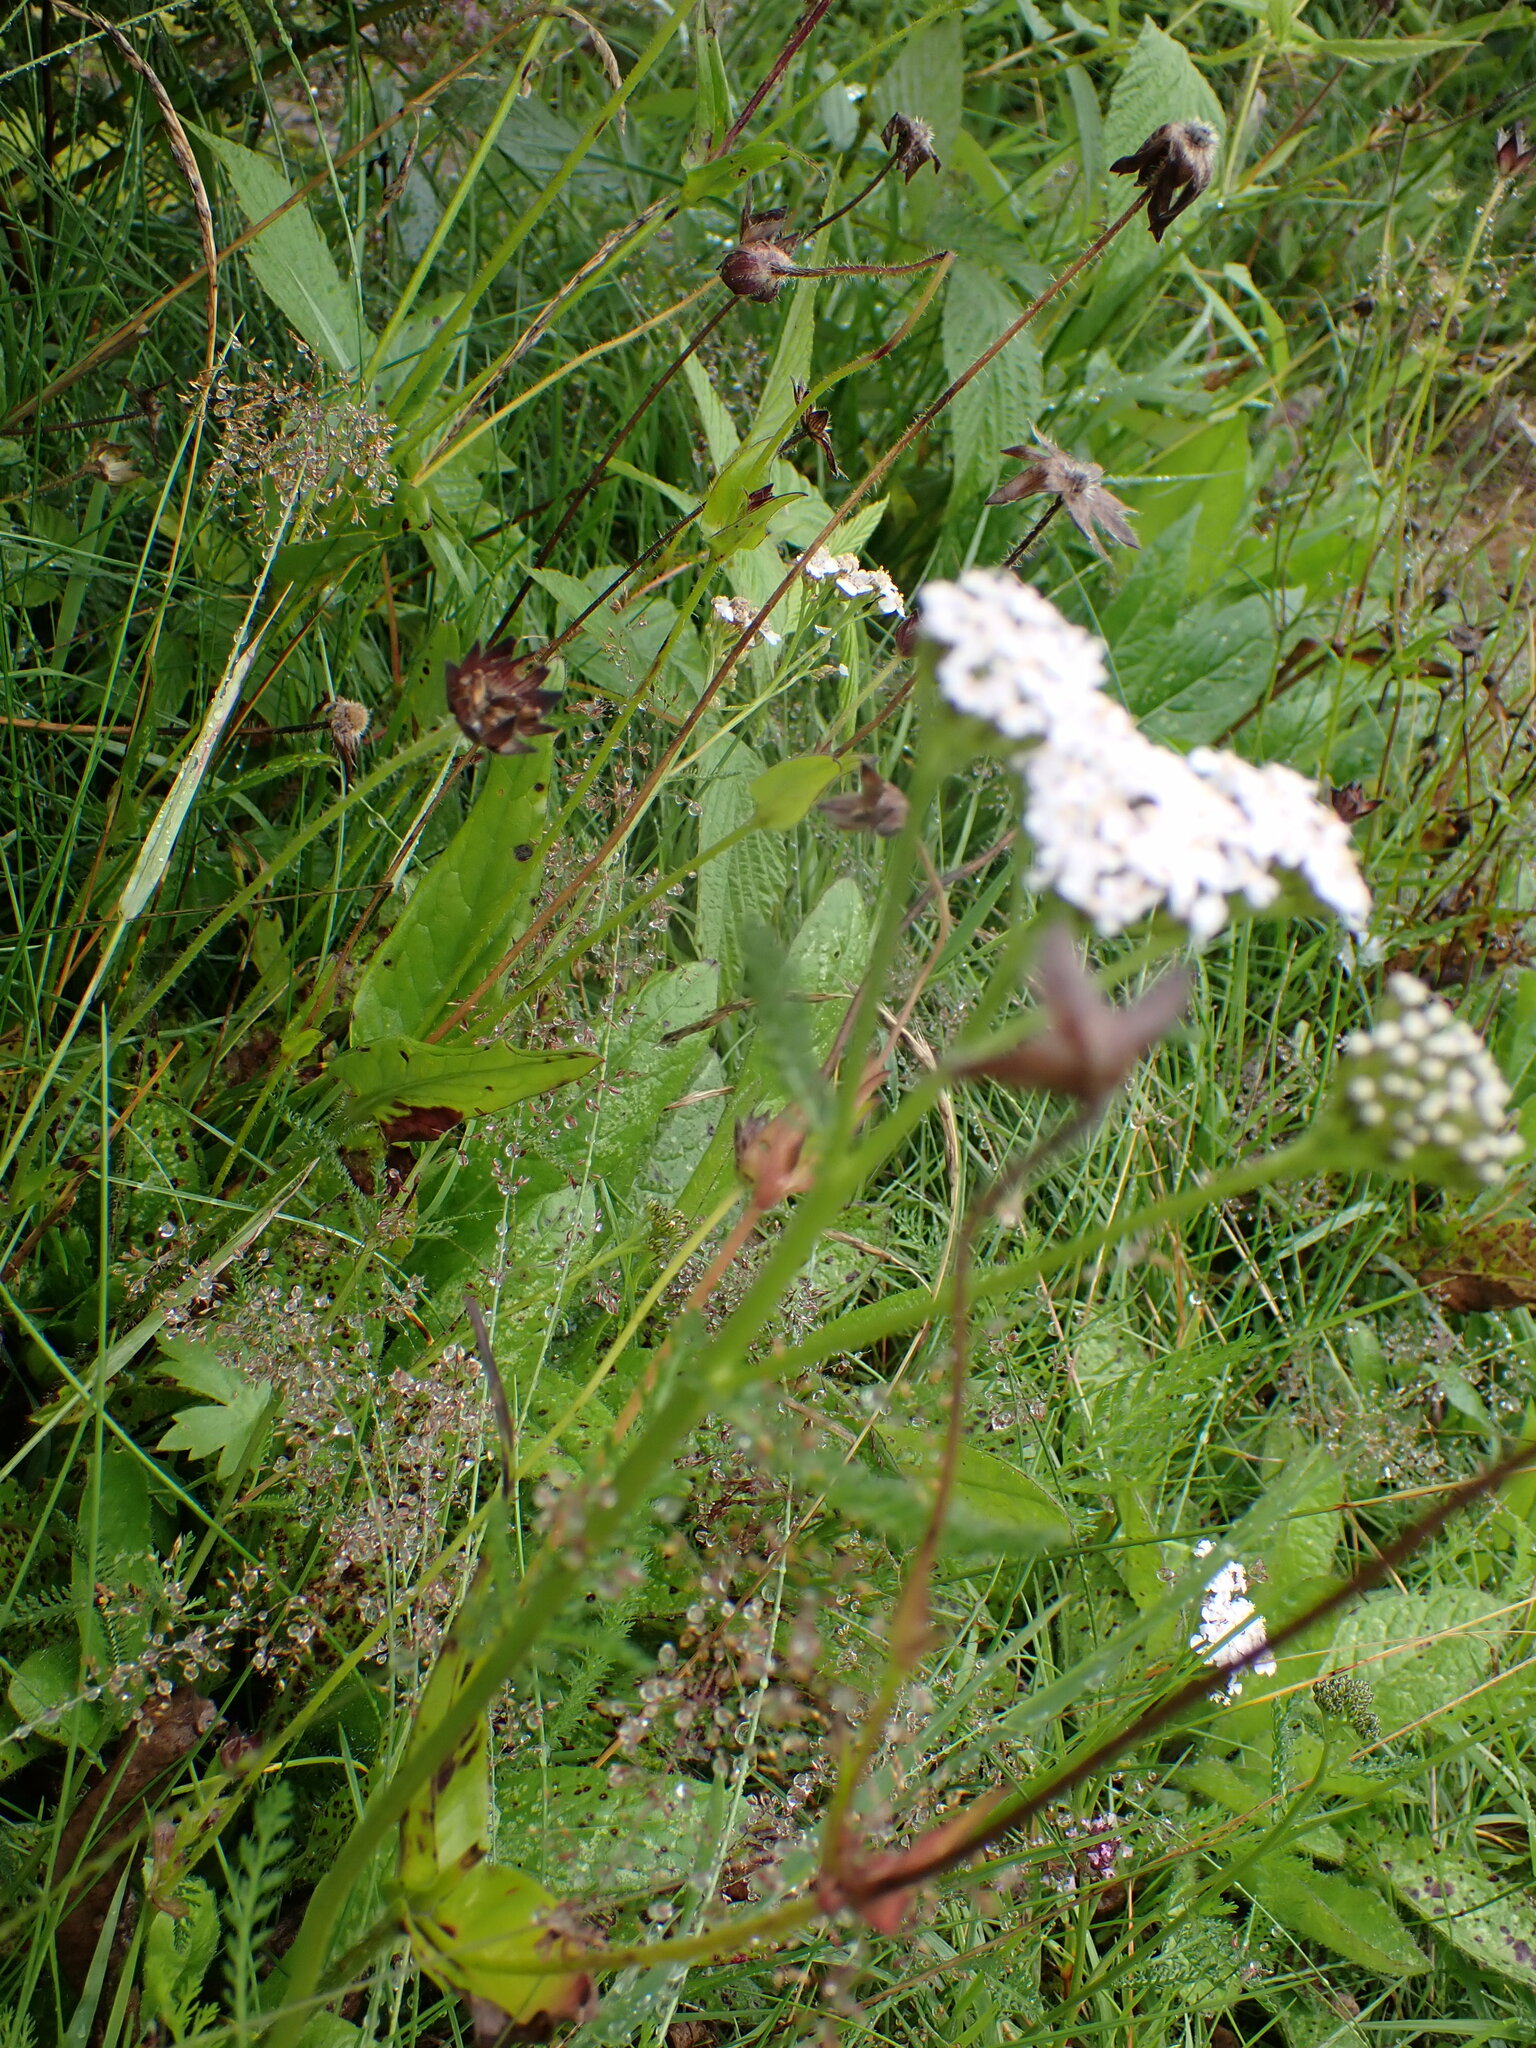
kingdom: Plantae
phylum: Tracheophyta
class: Magnoliopsida
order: Asterales
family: Asteraceae
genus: Achillea
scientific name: Achillea millefolium
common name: Yarrow
